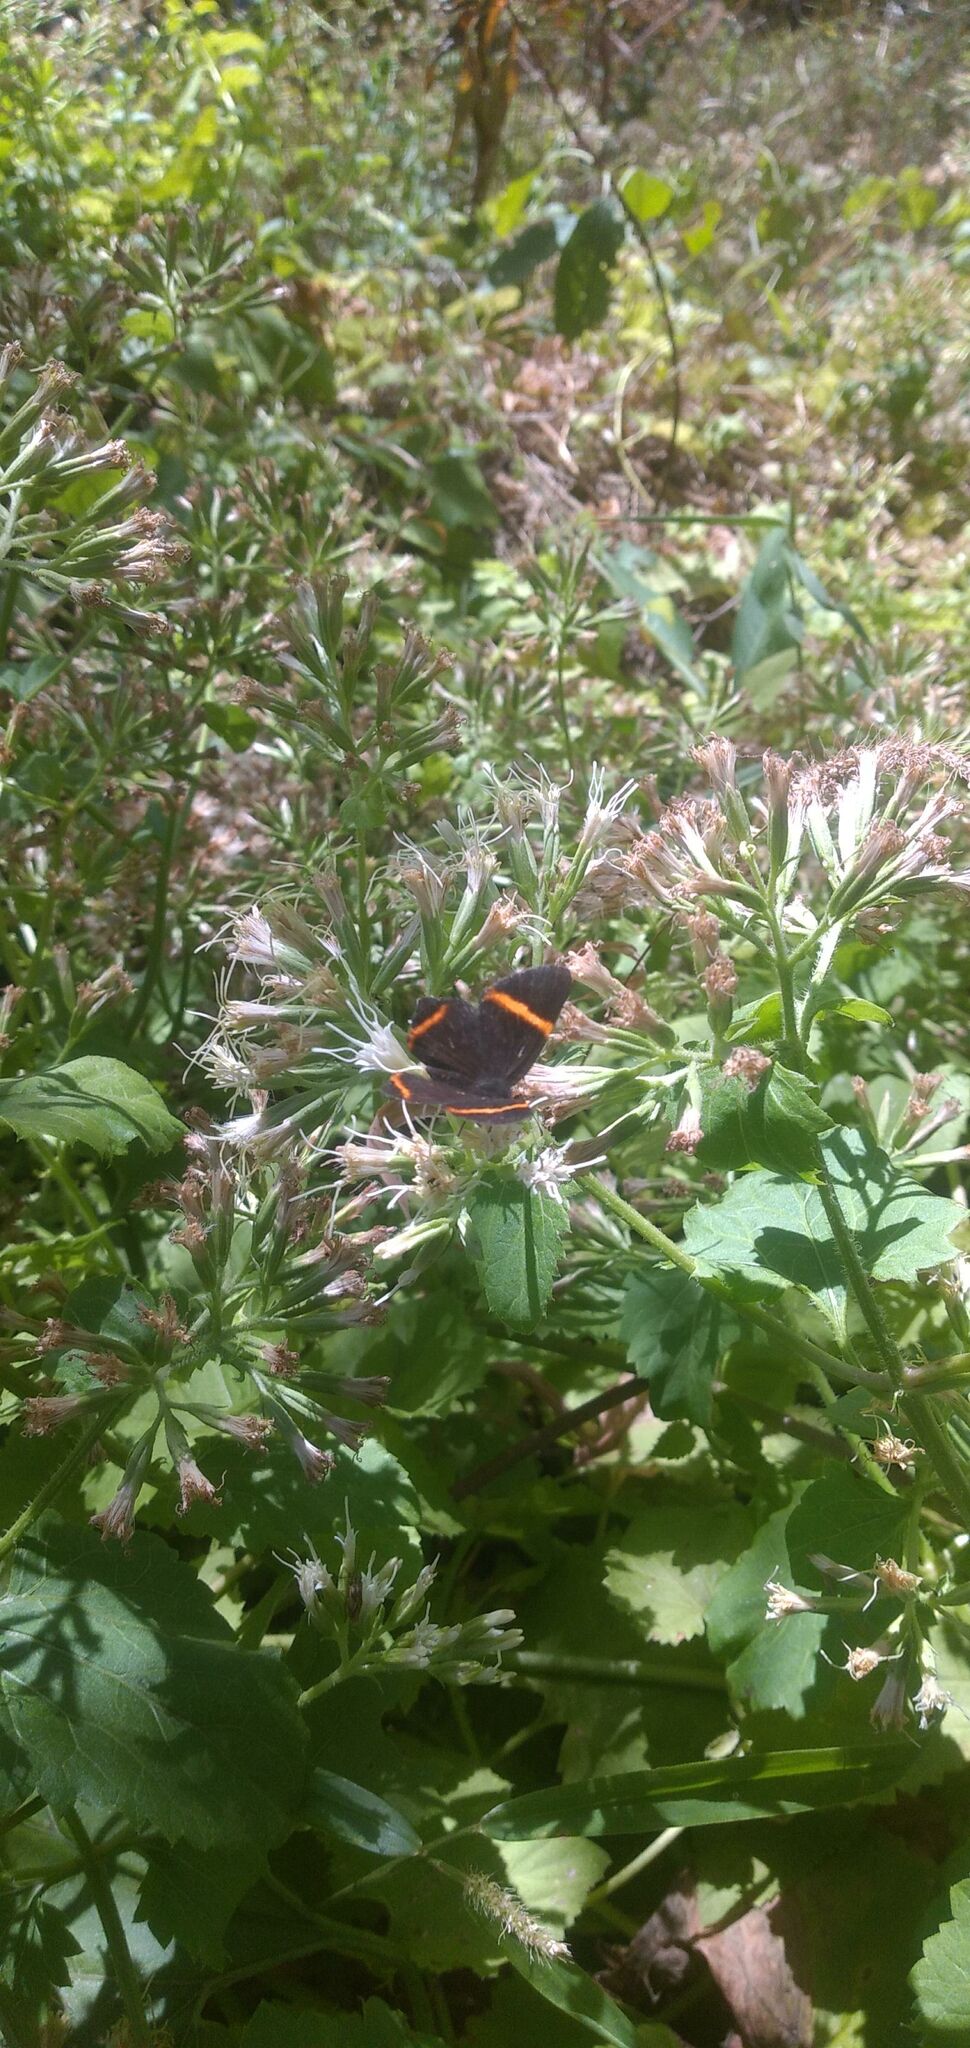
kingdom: Animalia
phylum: Arthropoda
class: Insecta
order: Lepidoptera
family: Riodinidae
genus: Riodina
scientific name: Riodina lysippoides
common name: Little dancer metalmark
